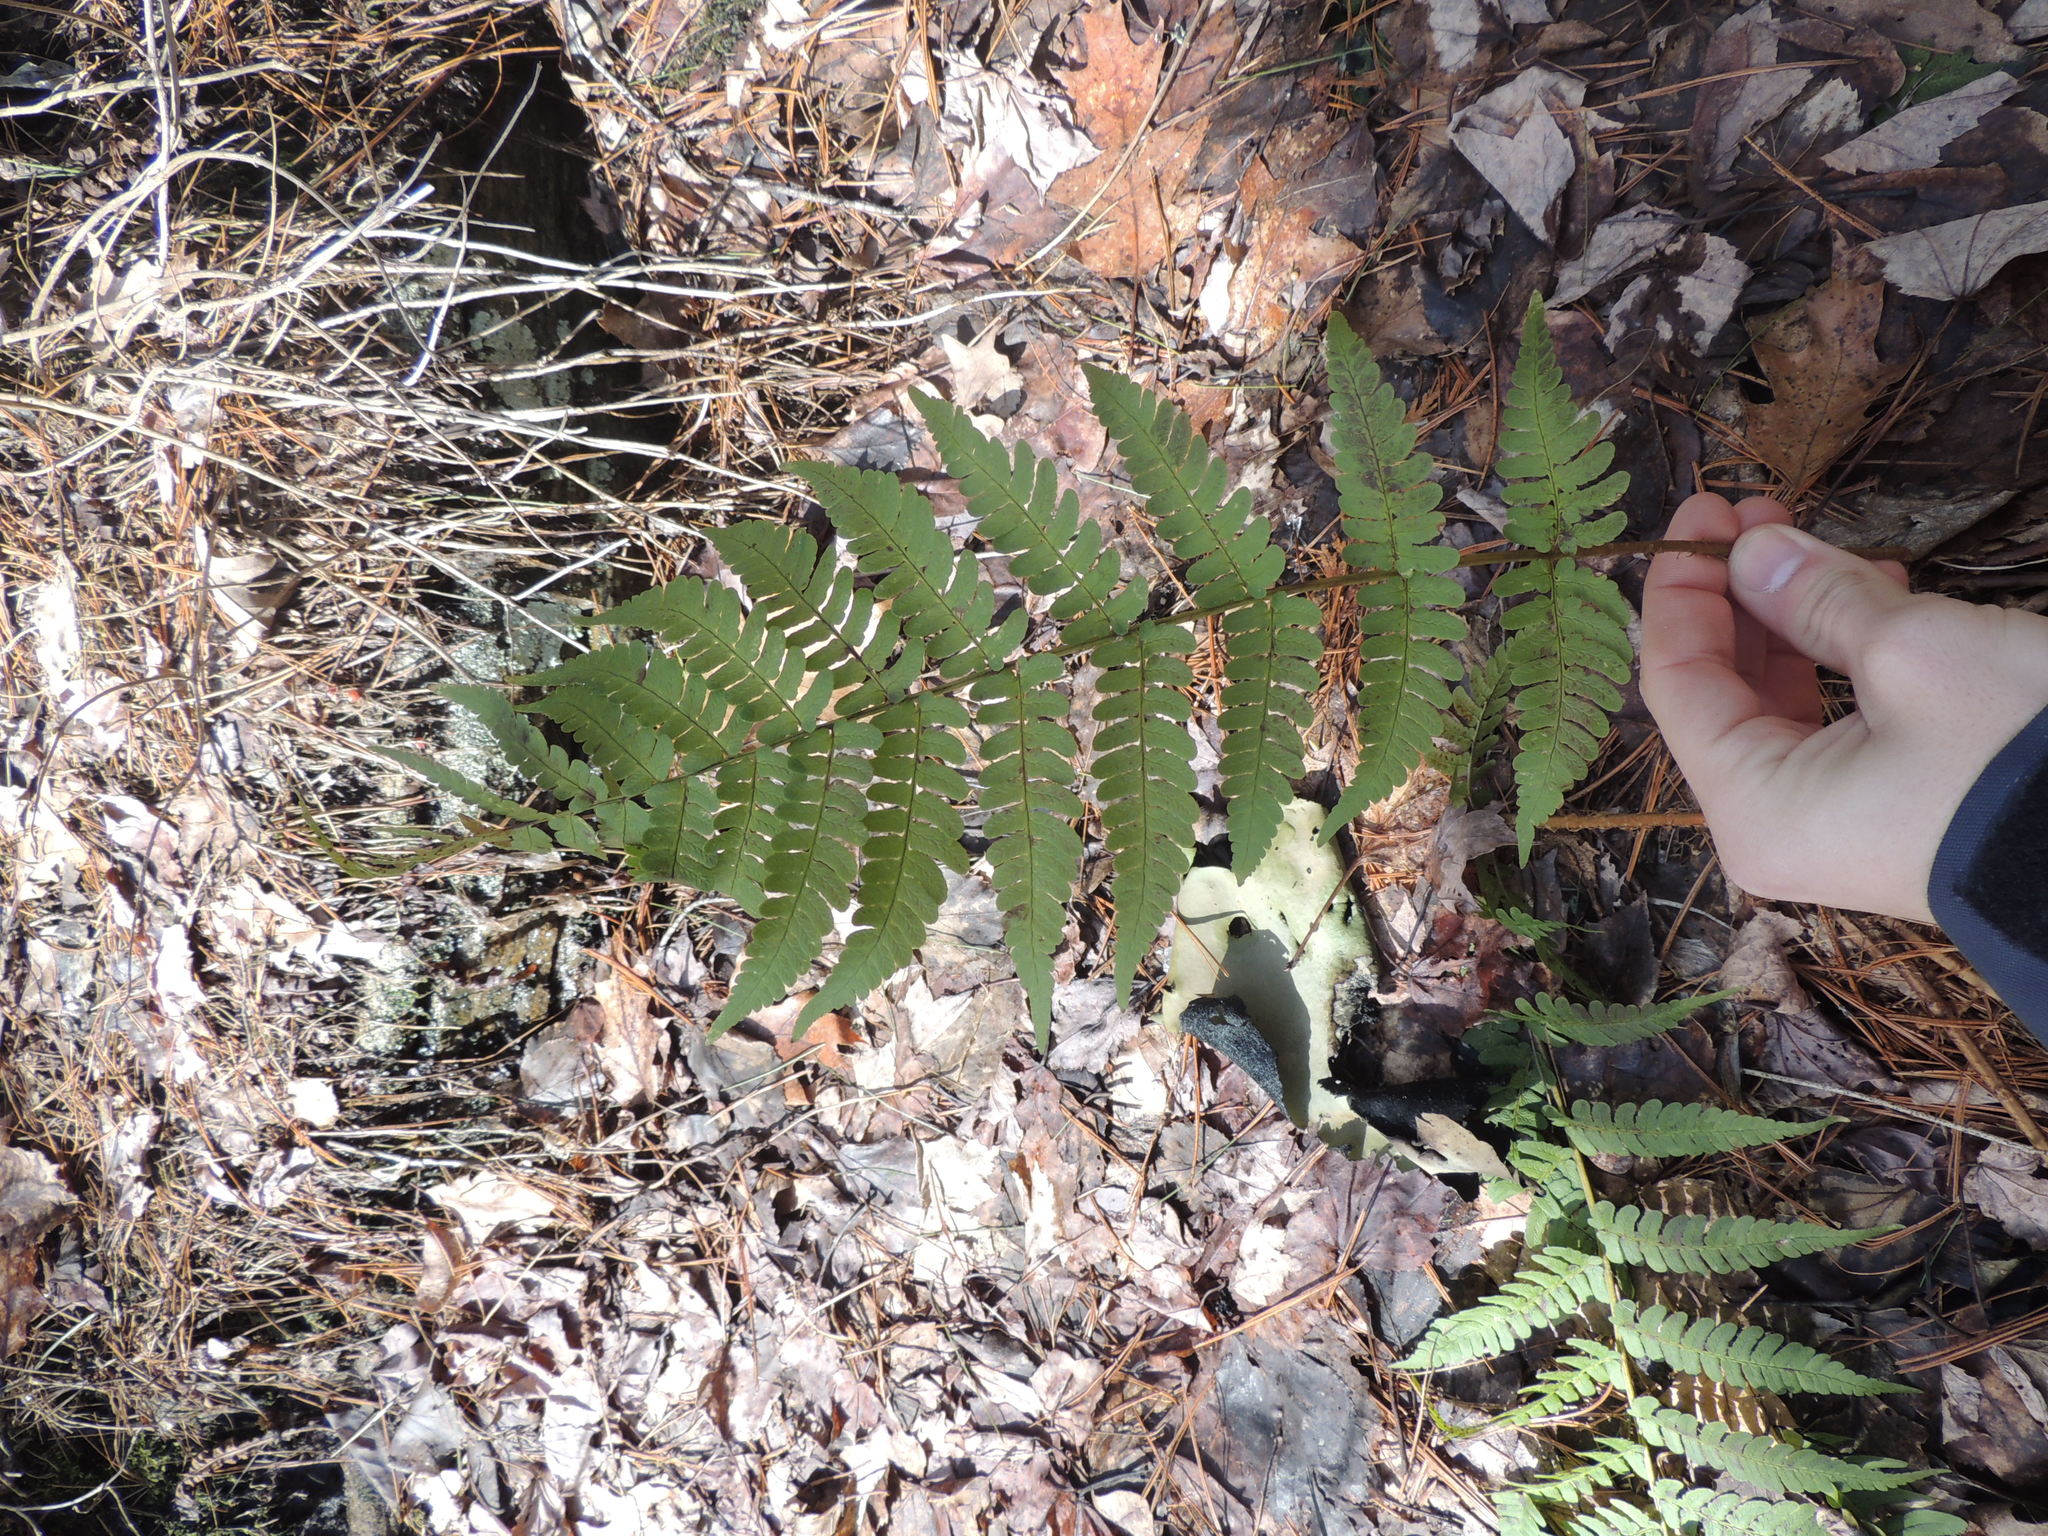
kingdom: Plantae
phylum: Tracheophyta
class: Polypodiopsida
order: Polypodiales
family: Dryopteridaceae
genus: Dryopteris
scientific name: Dryopteris marginalis
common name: Marginal wood fern
